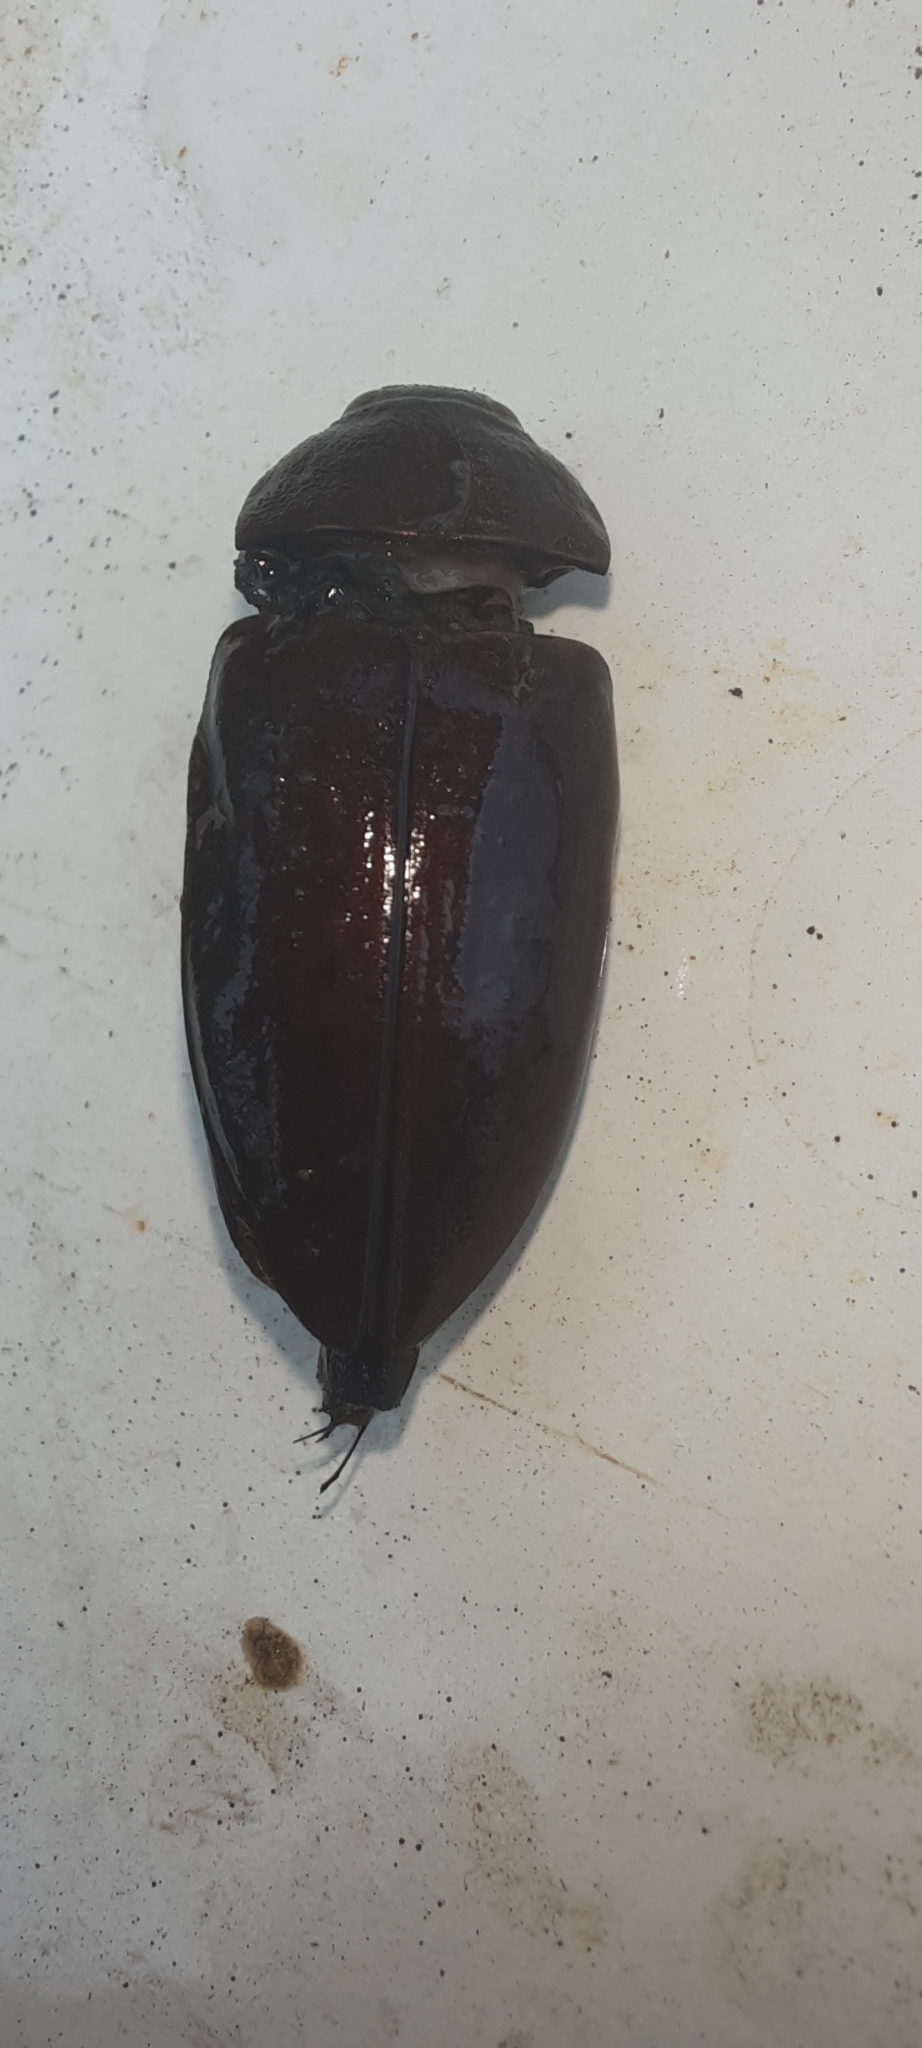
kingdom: Animalia
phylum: Arthropoda
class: Insecta
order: Coleoptera
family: Buprestidae
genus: Perotis
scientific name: Perotis lugubris
